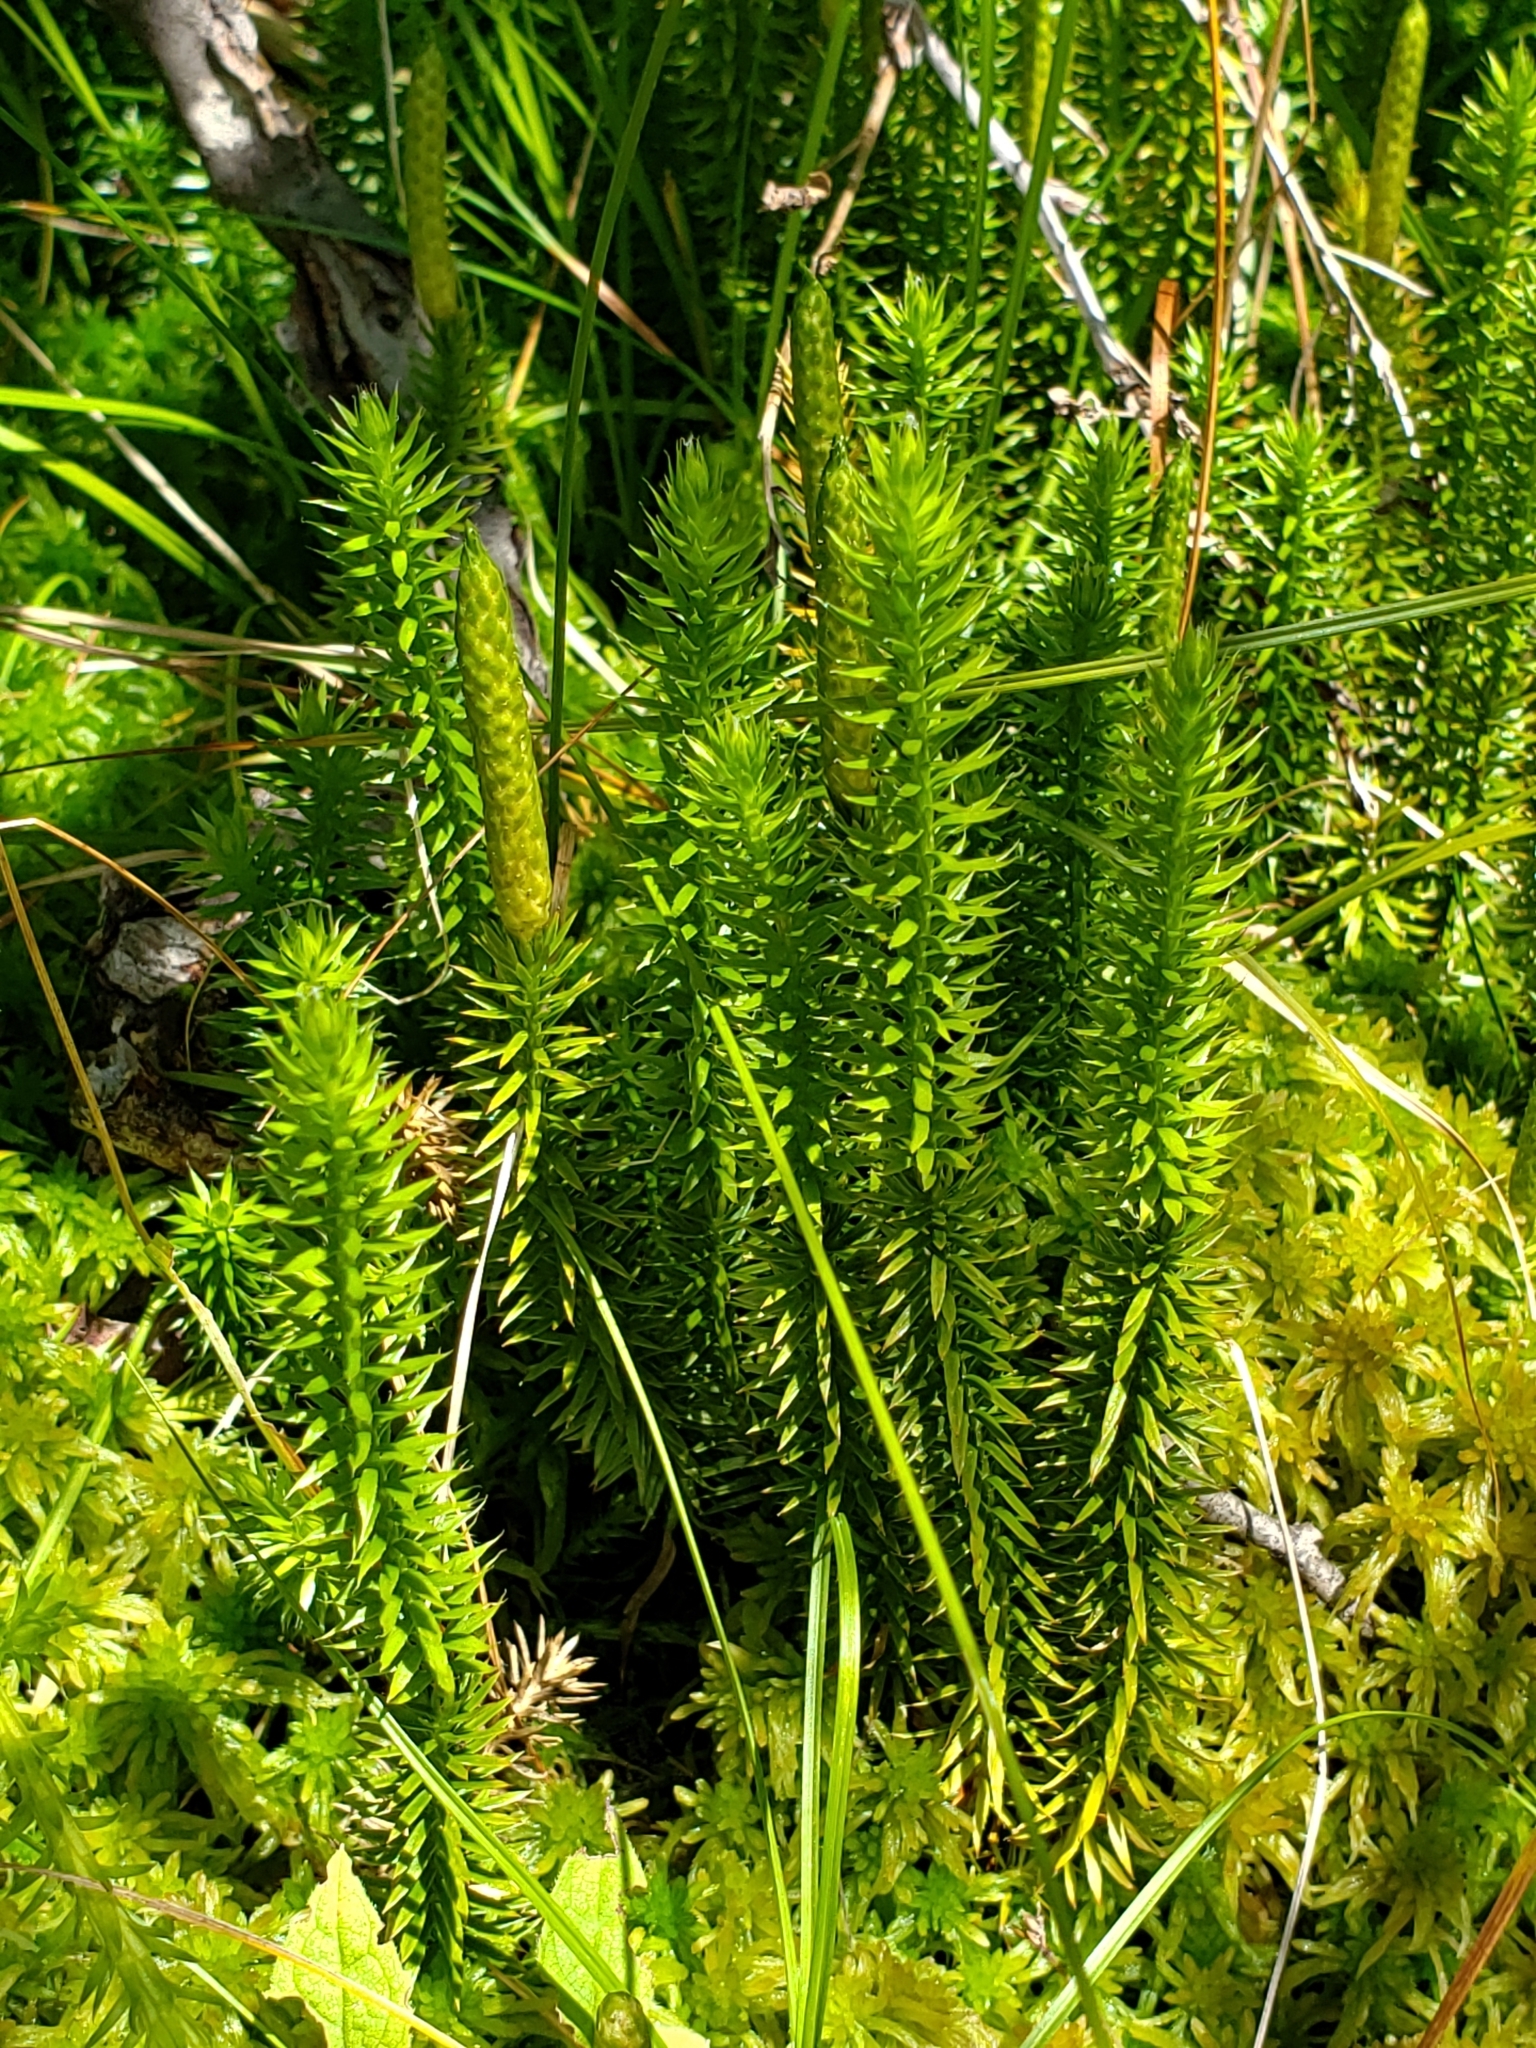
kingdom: Plantae
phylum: Tracheophyta
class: Lycopodiopsida
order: Lycopodiales
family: Lycopodiaceae
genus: Spinulum
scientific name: Spinulum annotinum
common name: Interrupted club-moss
